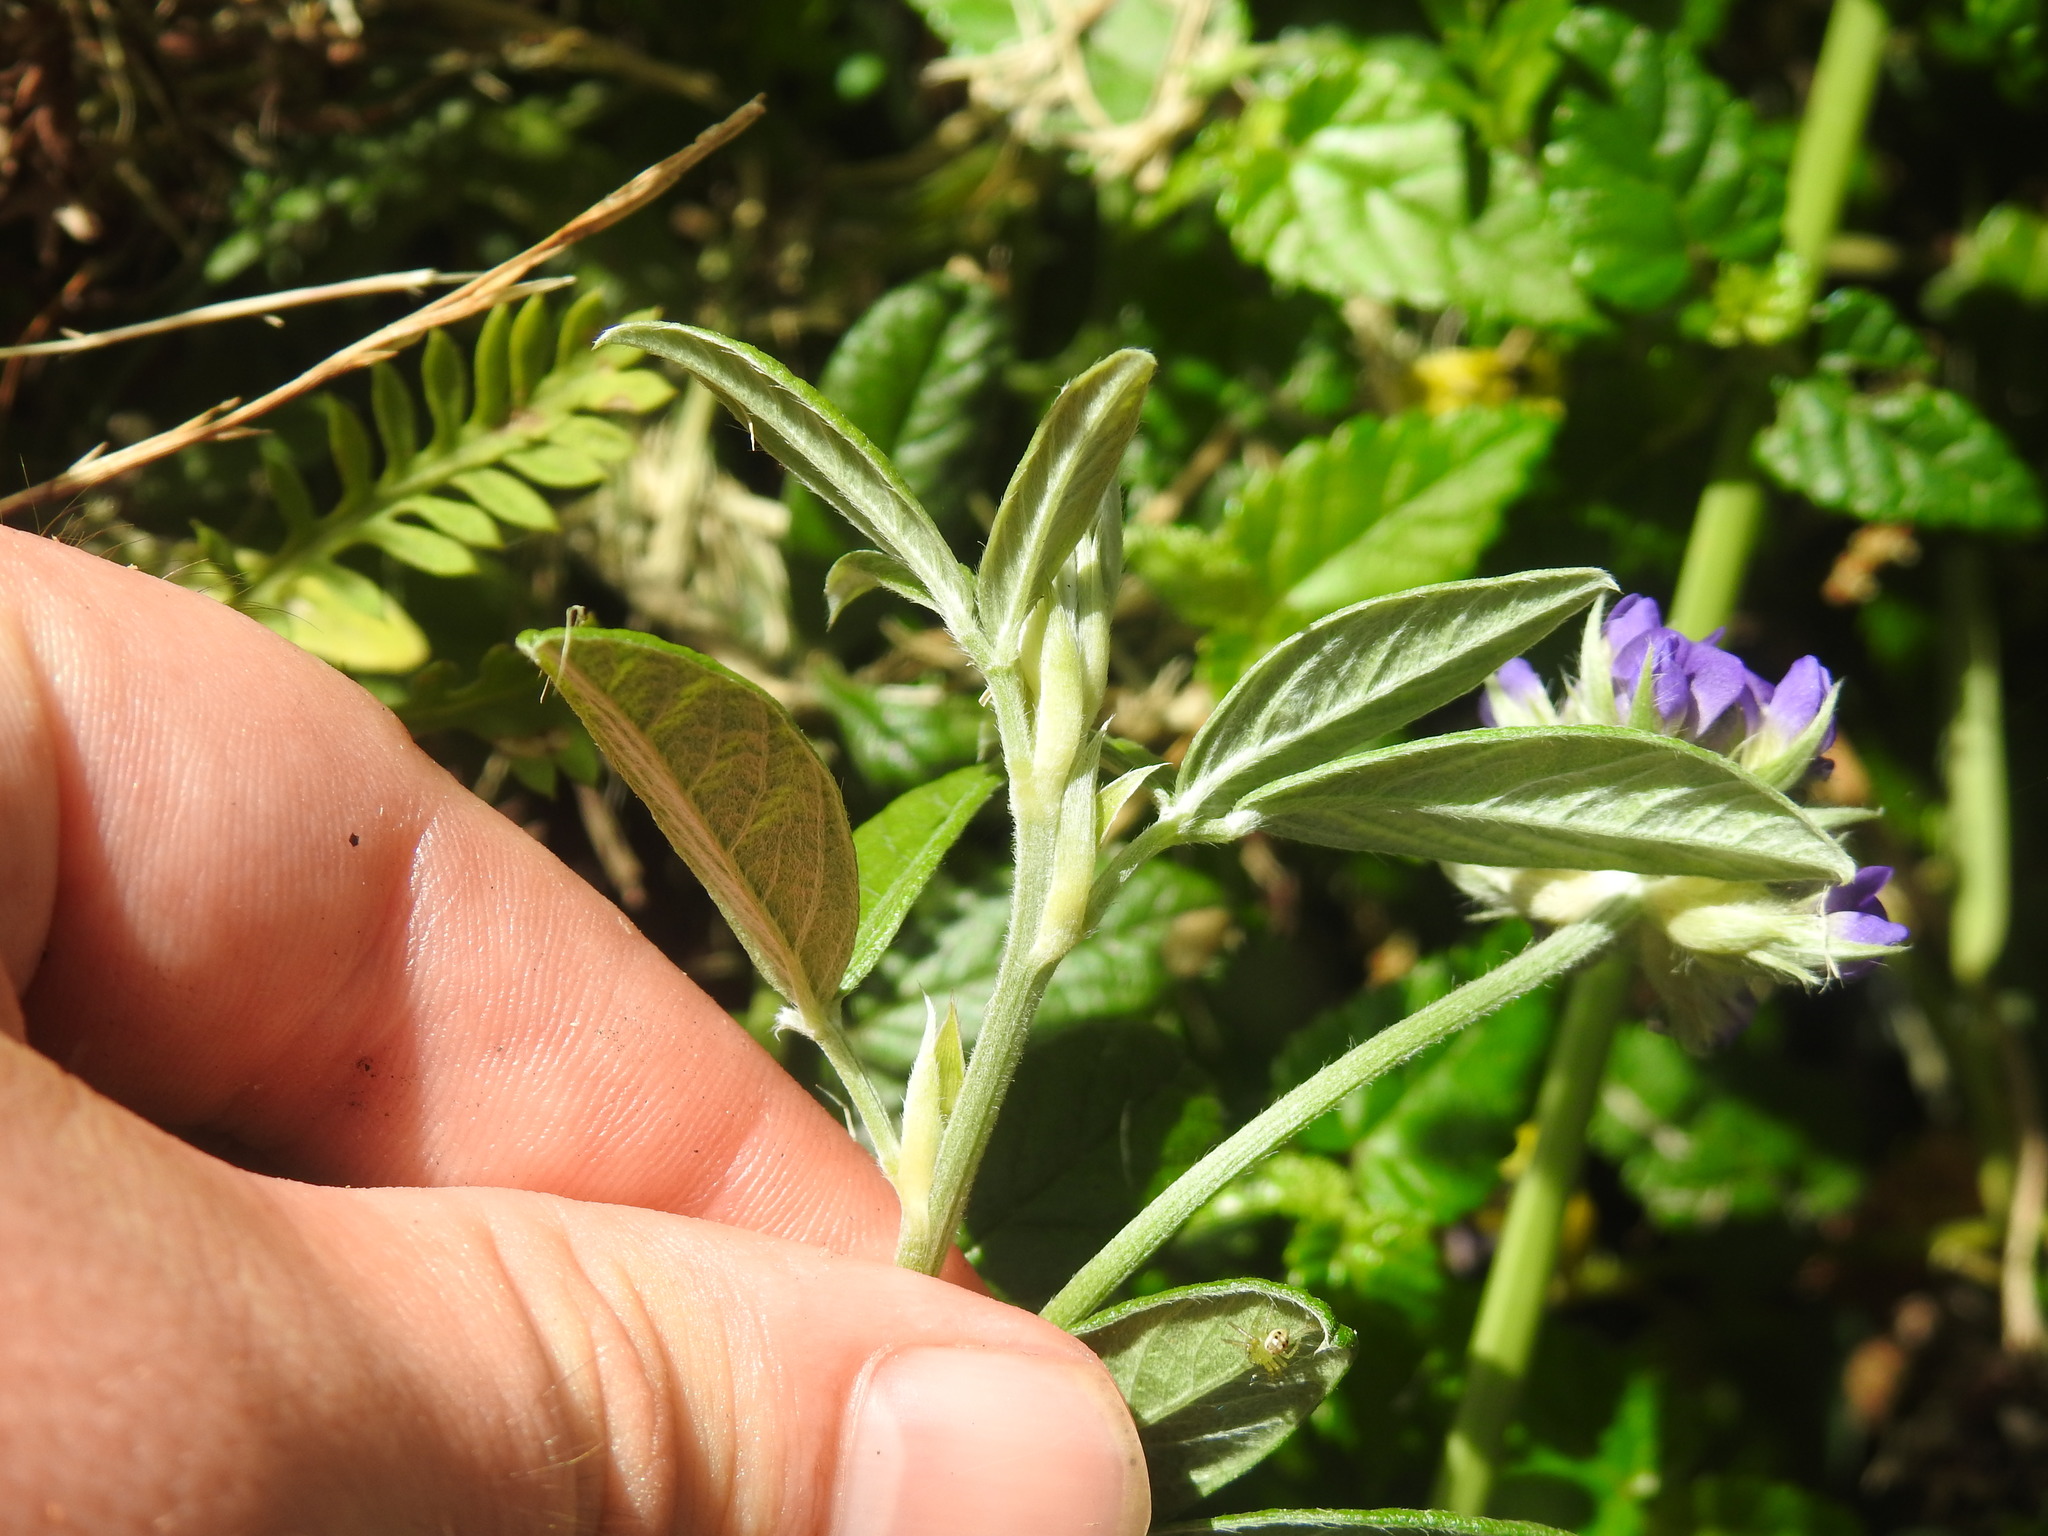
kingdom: Plantae
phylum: Tracheophyta
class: Magnoliopsida
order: Fabales
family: Fabaceae
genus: Psoralea
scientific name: Psoralea sericea
